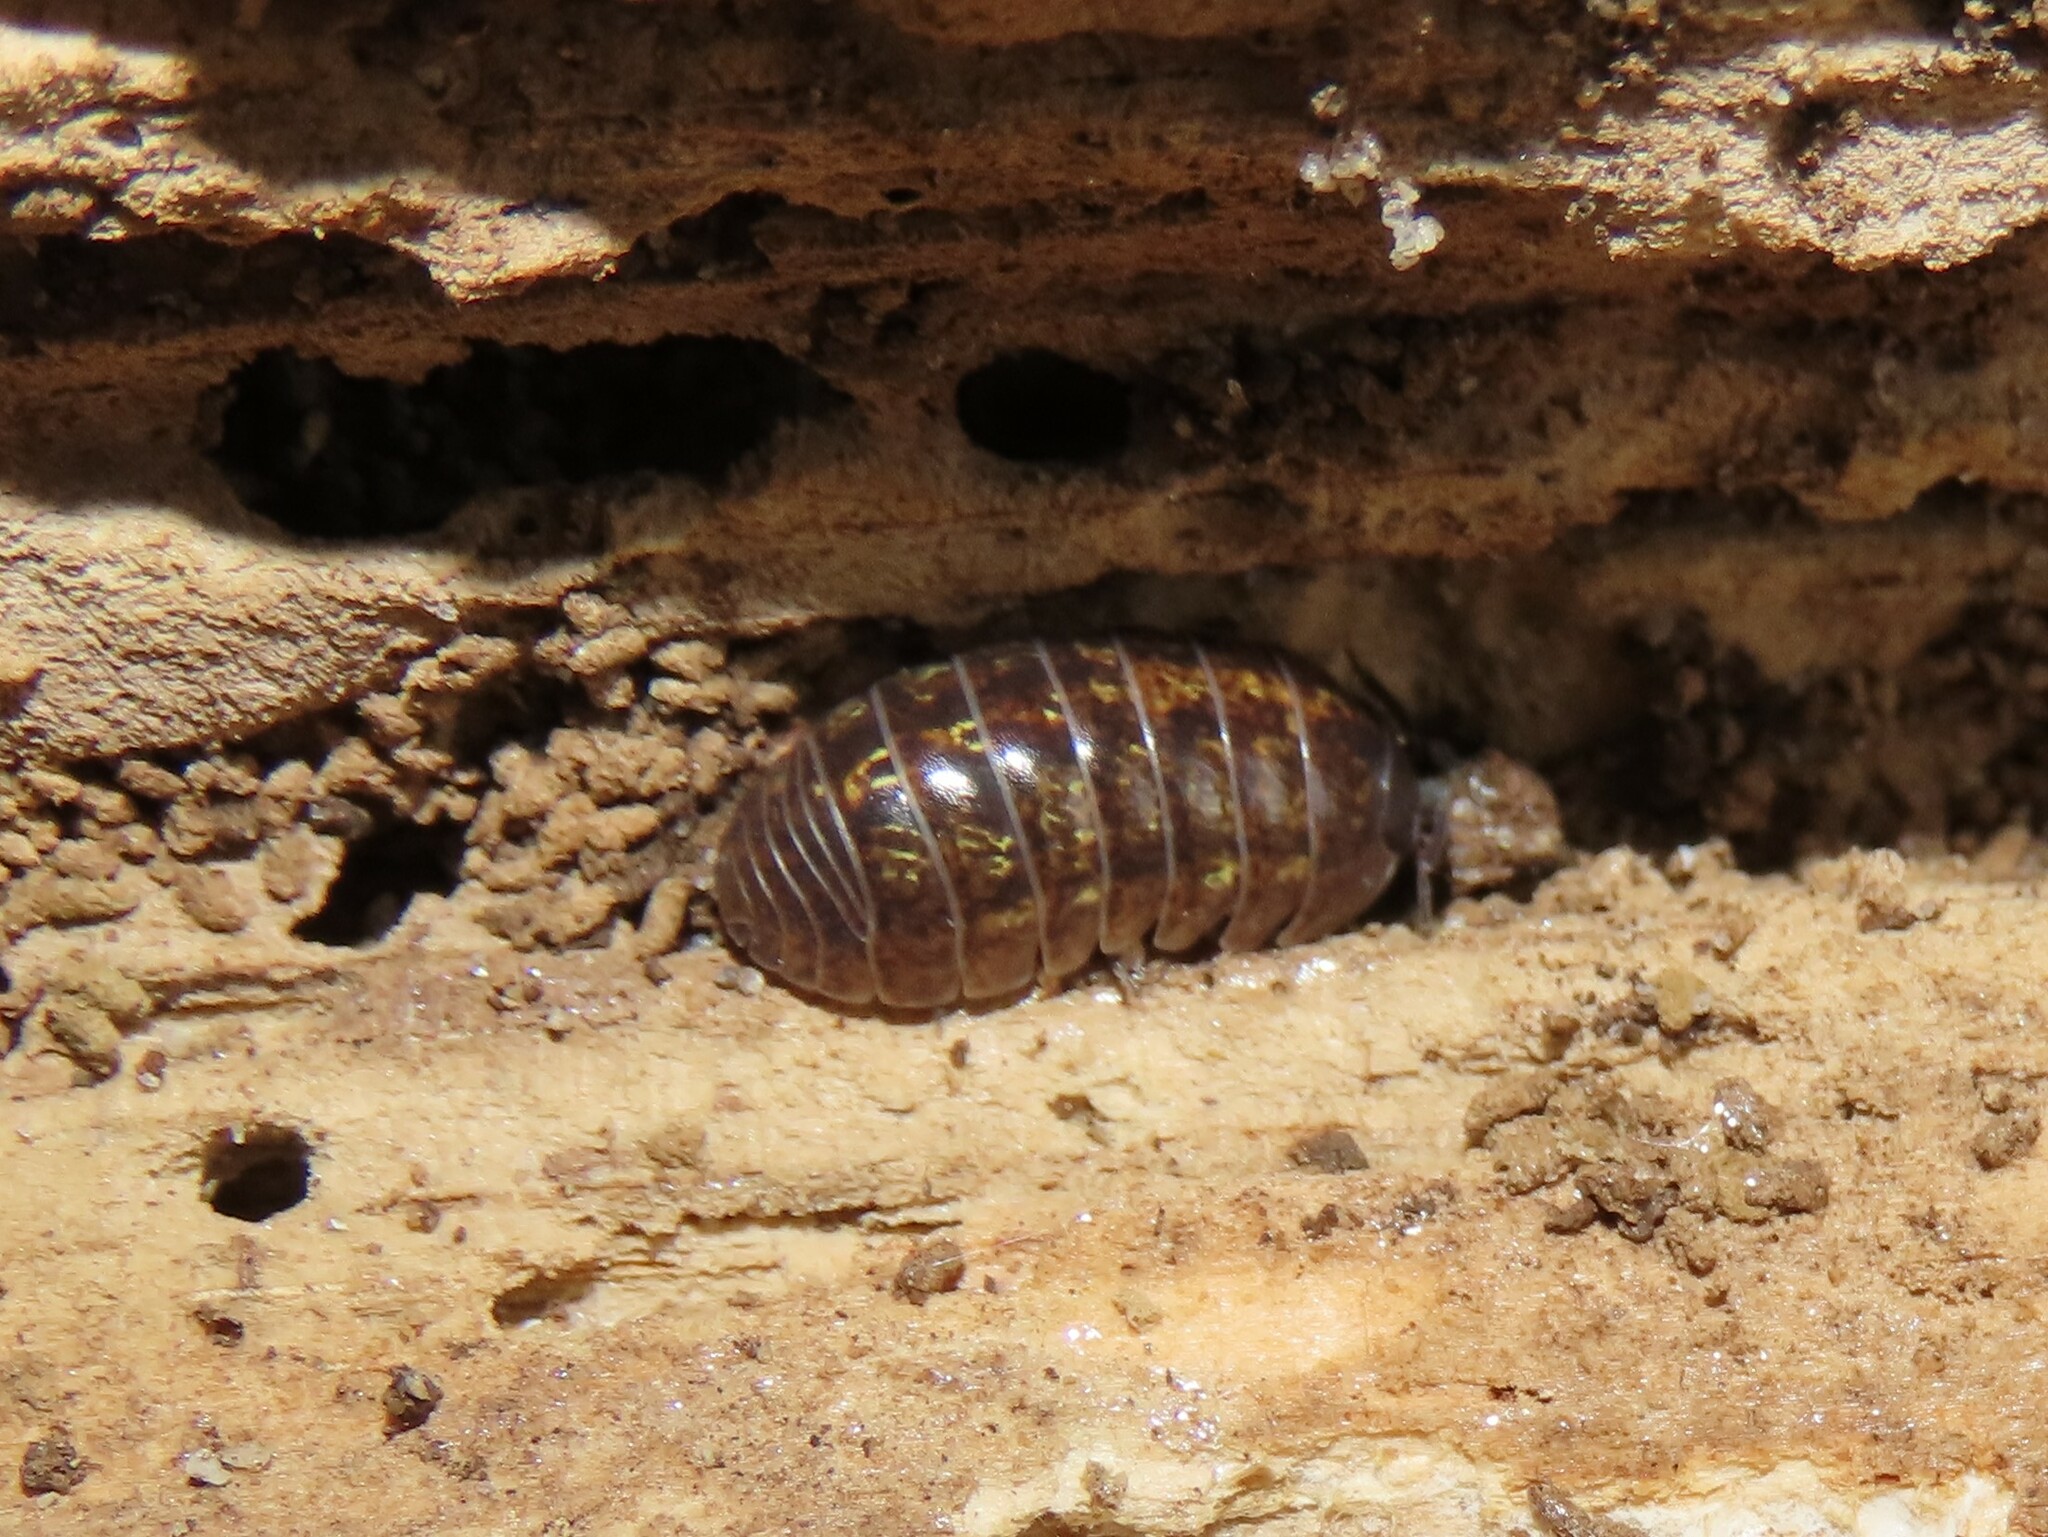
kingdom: Animalia
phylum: Arthropoda
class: Malacostraca
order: Isopoda
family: Armadillidiidae
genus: Armadillidium
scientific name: Armadillidium vulgare
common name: Common pill woodlouse
